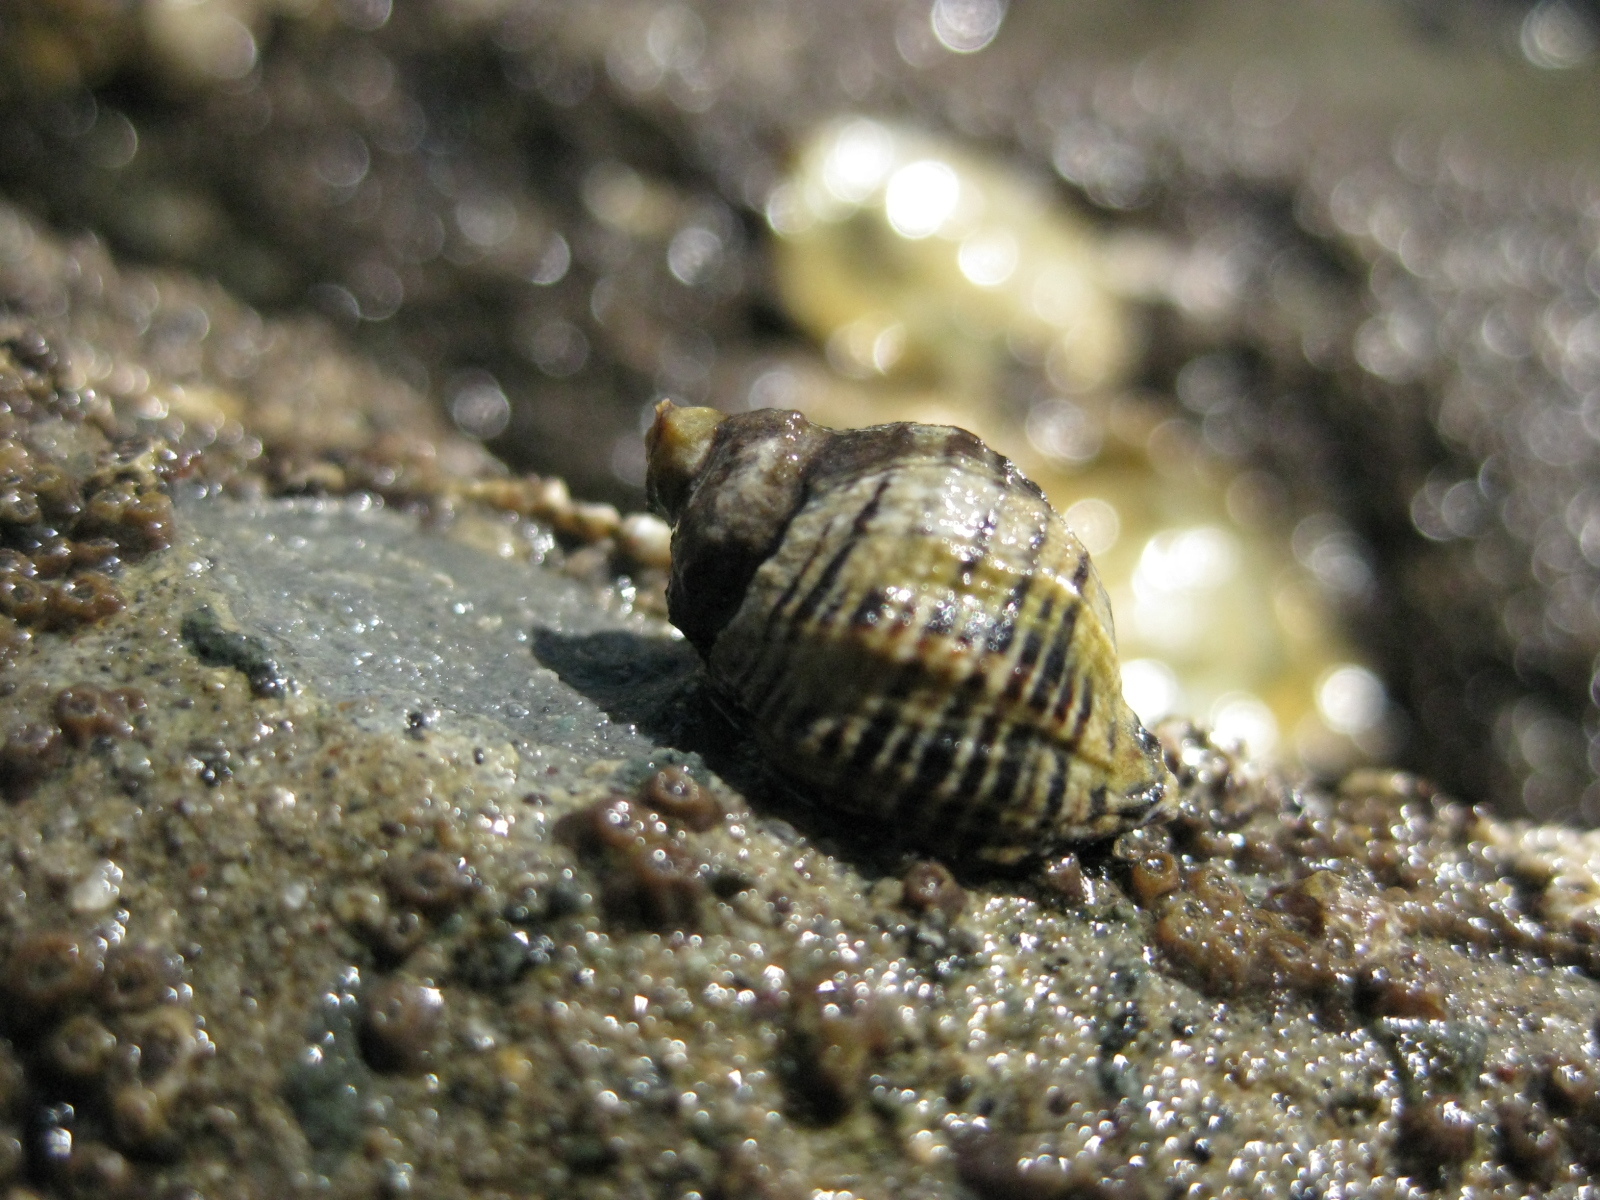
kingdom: Animalia
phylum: Mollusca
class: Gastropoda
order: Neogastropoda
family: Muricidae
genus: Haustrum
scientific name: Haustrum scobina
